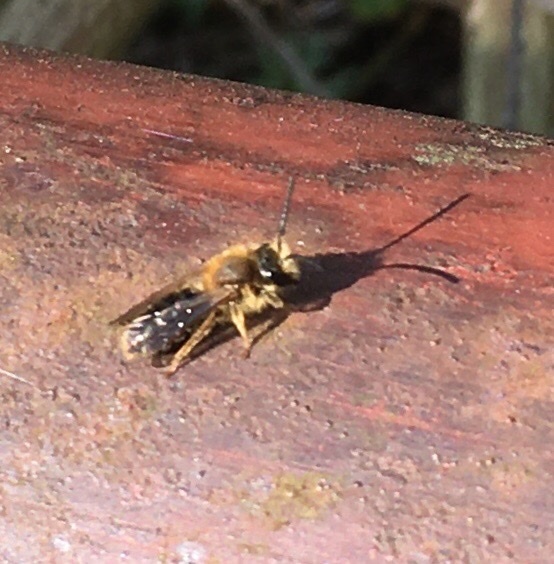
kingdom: Animalia
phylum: Arthropoda
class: Insecta
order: Hymenoptera
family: Andrenidae
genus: Andrena
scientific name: Andrena haemorrhoa
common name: Early mining bee
